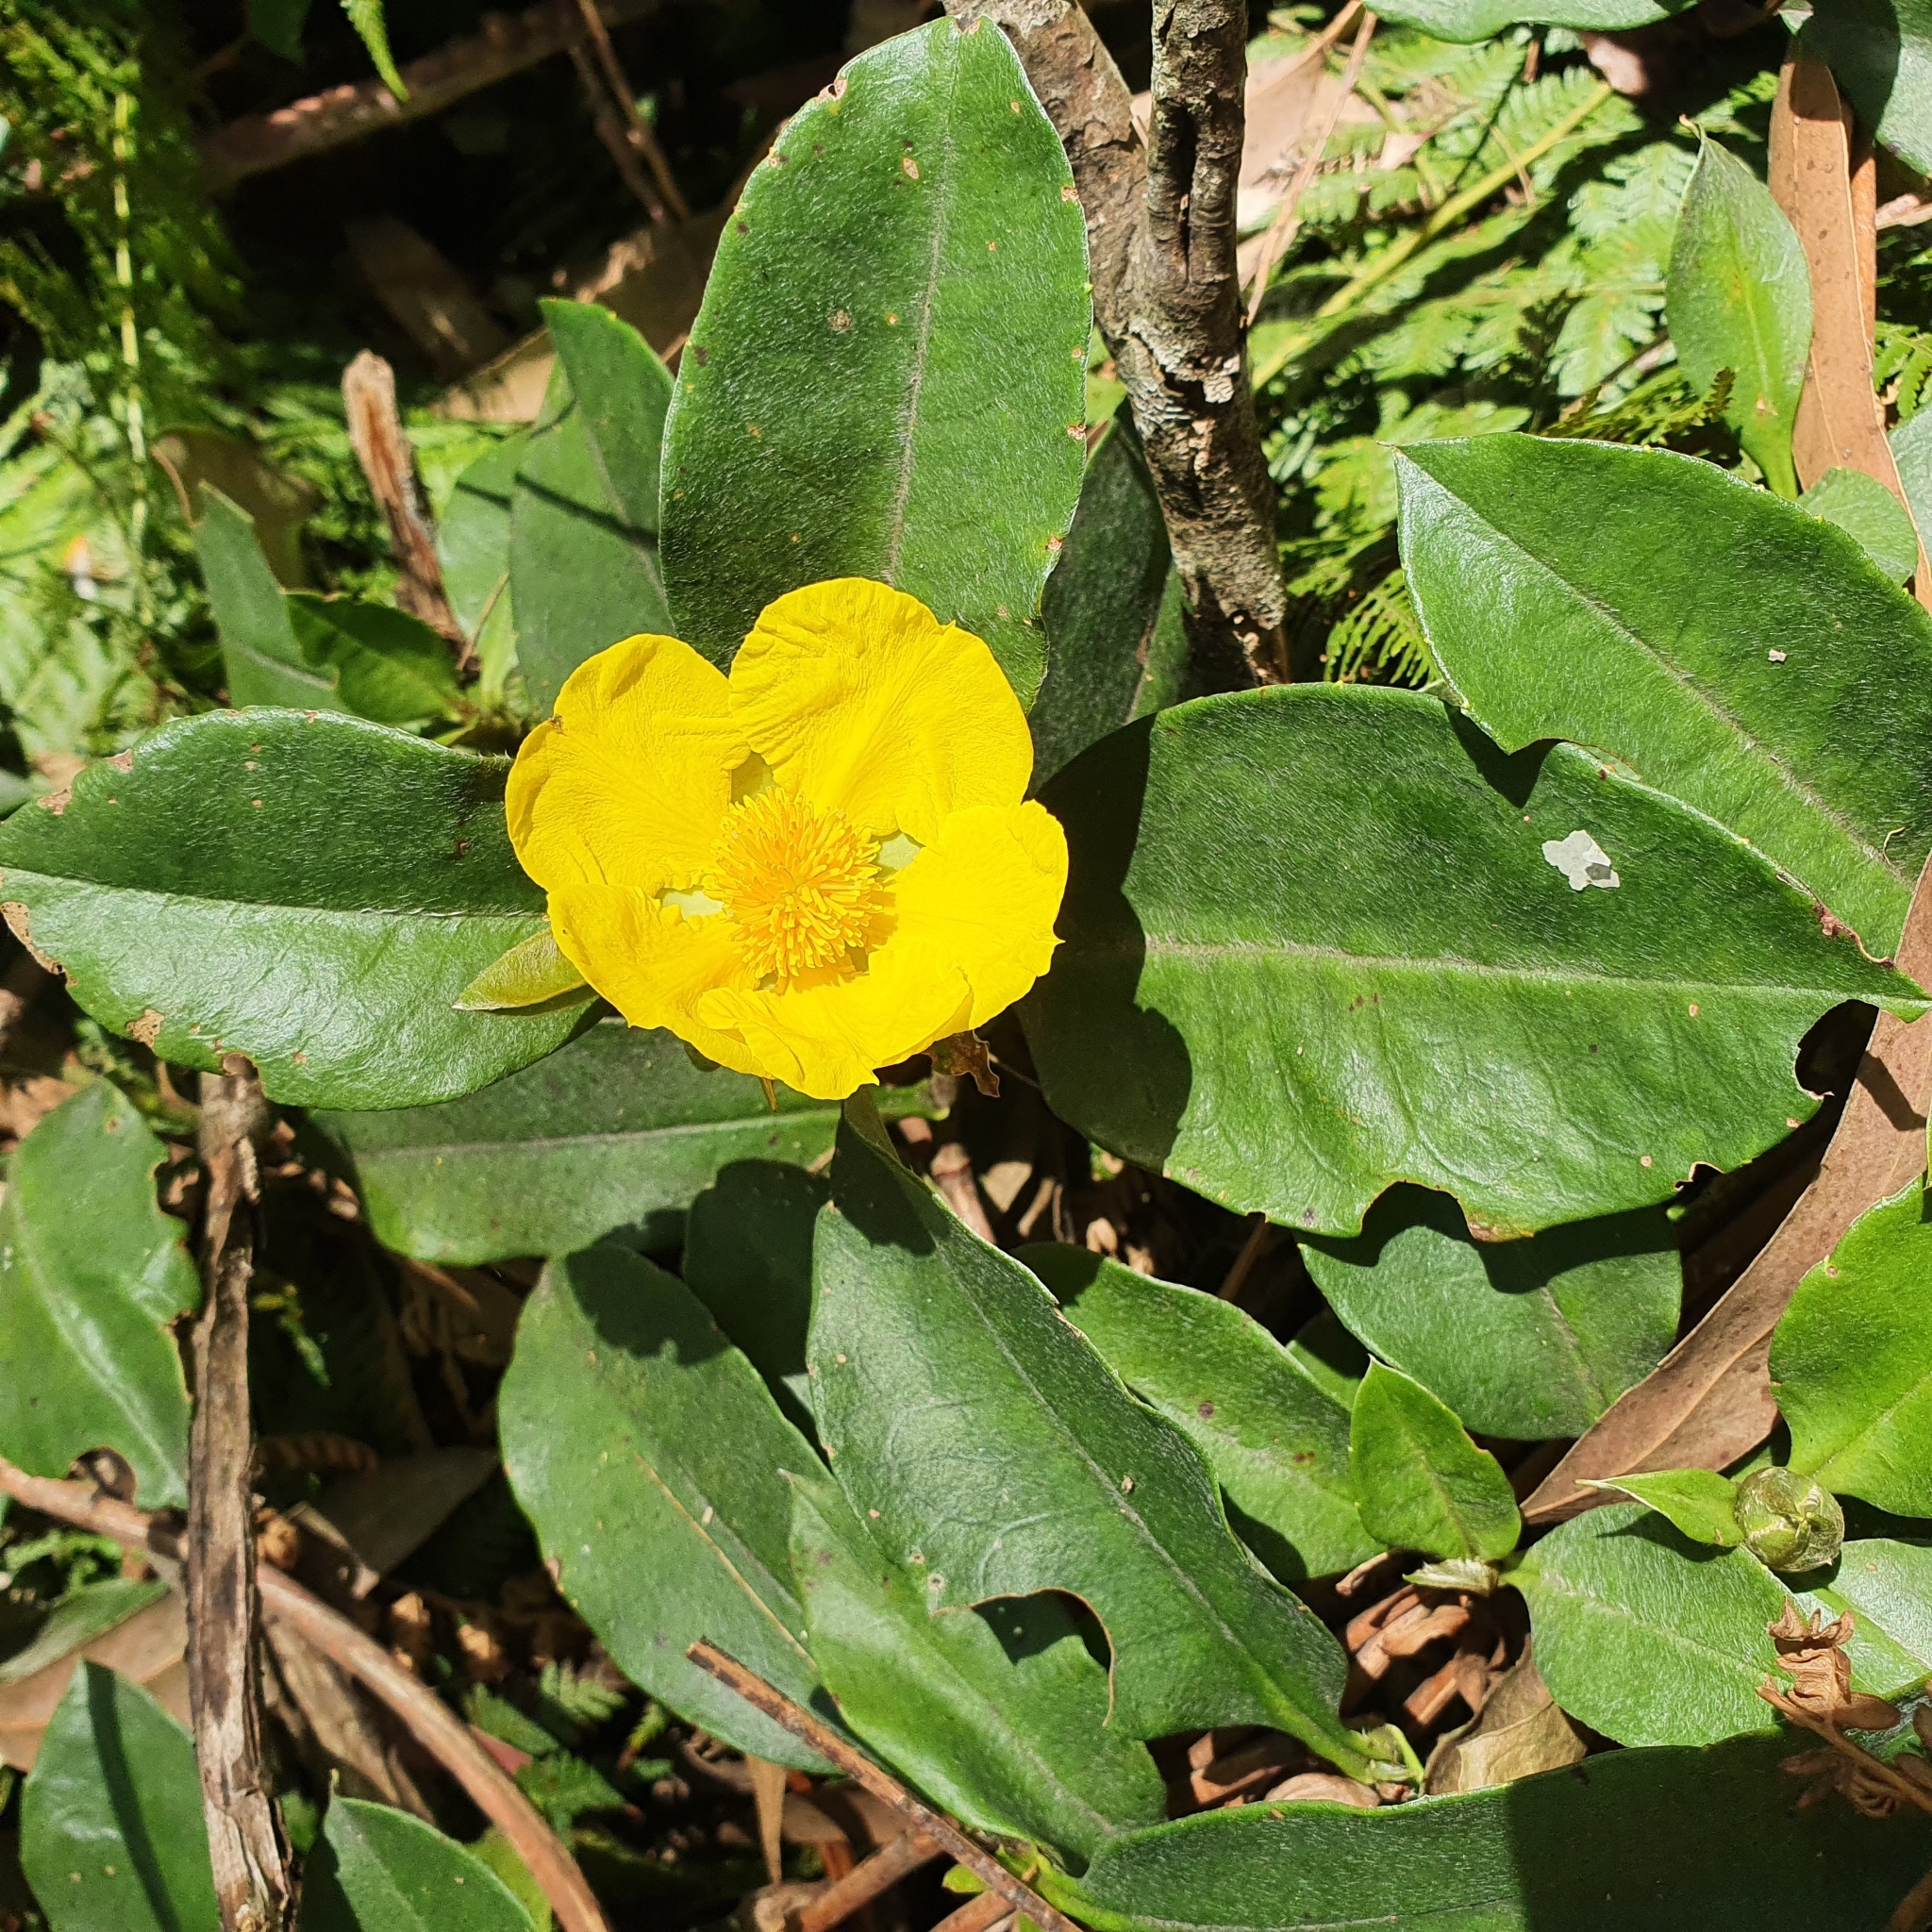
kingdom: Plantae
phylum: Tracheophyta
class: Magnoliopsida
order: Dilleniales
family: Dilleniaceae
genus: Hibbertia
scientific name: Hibbertia scandens
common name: Climbing guinea-flower
